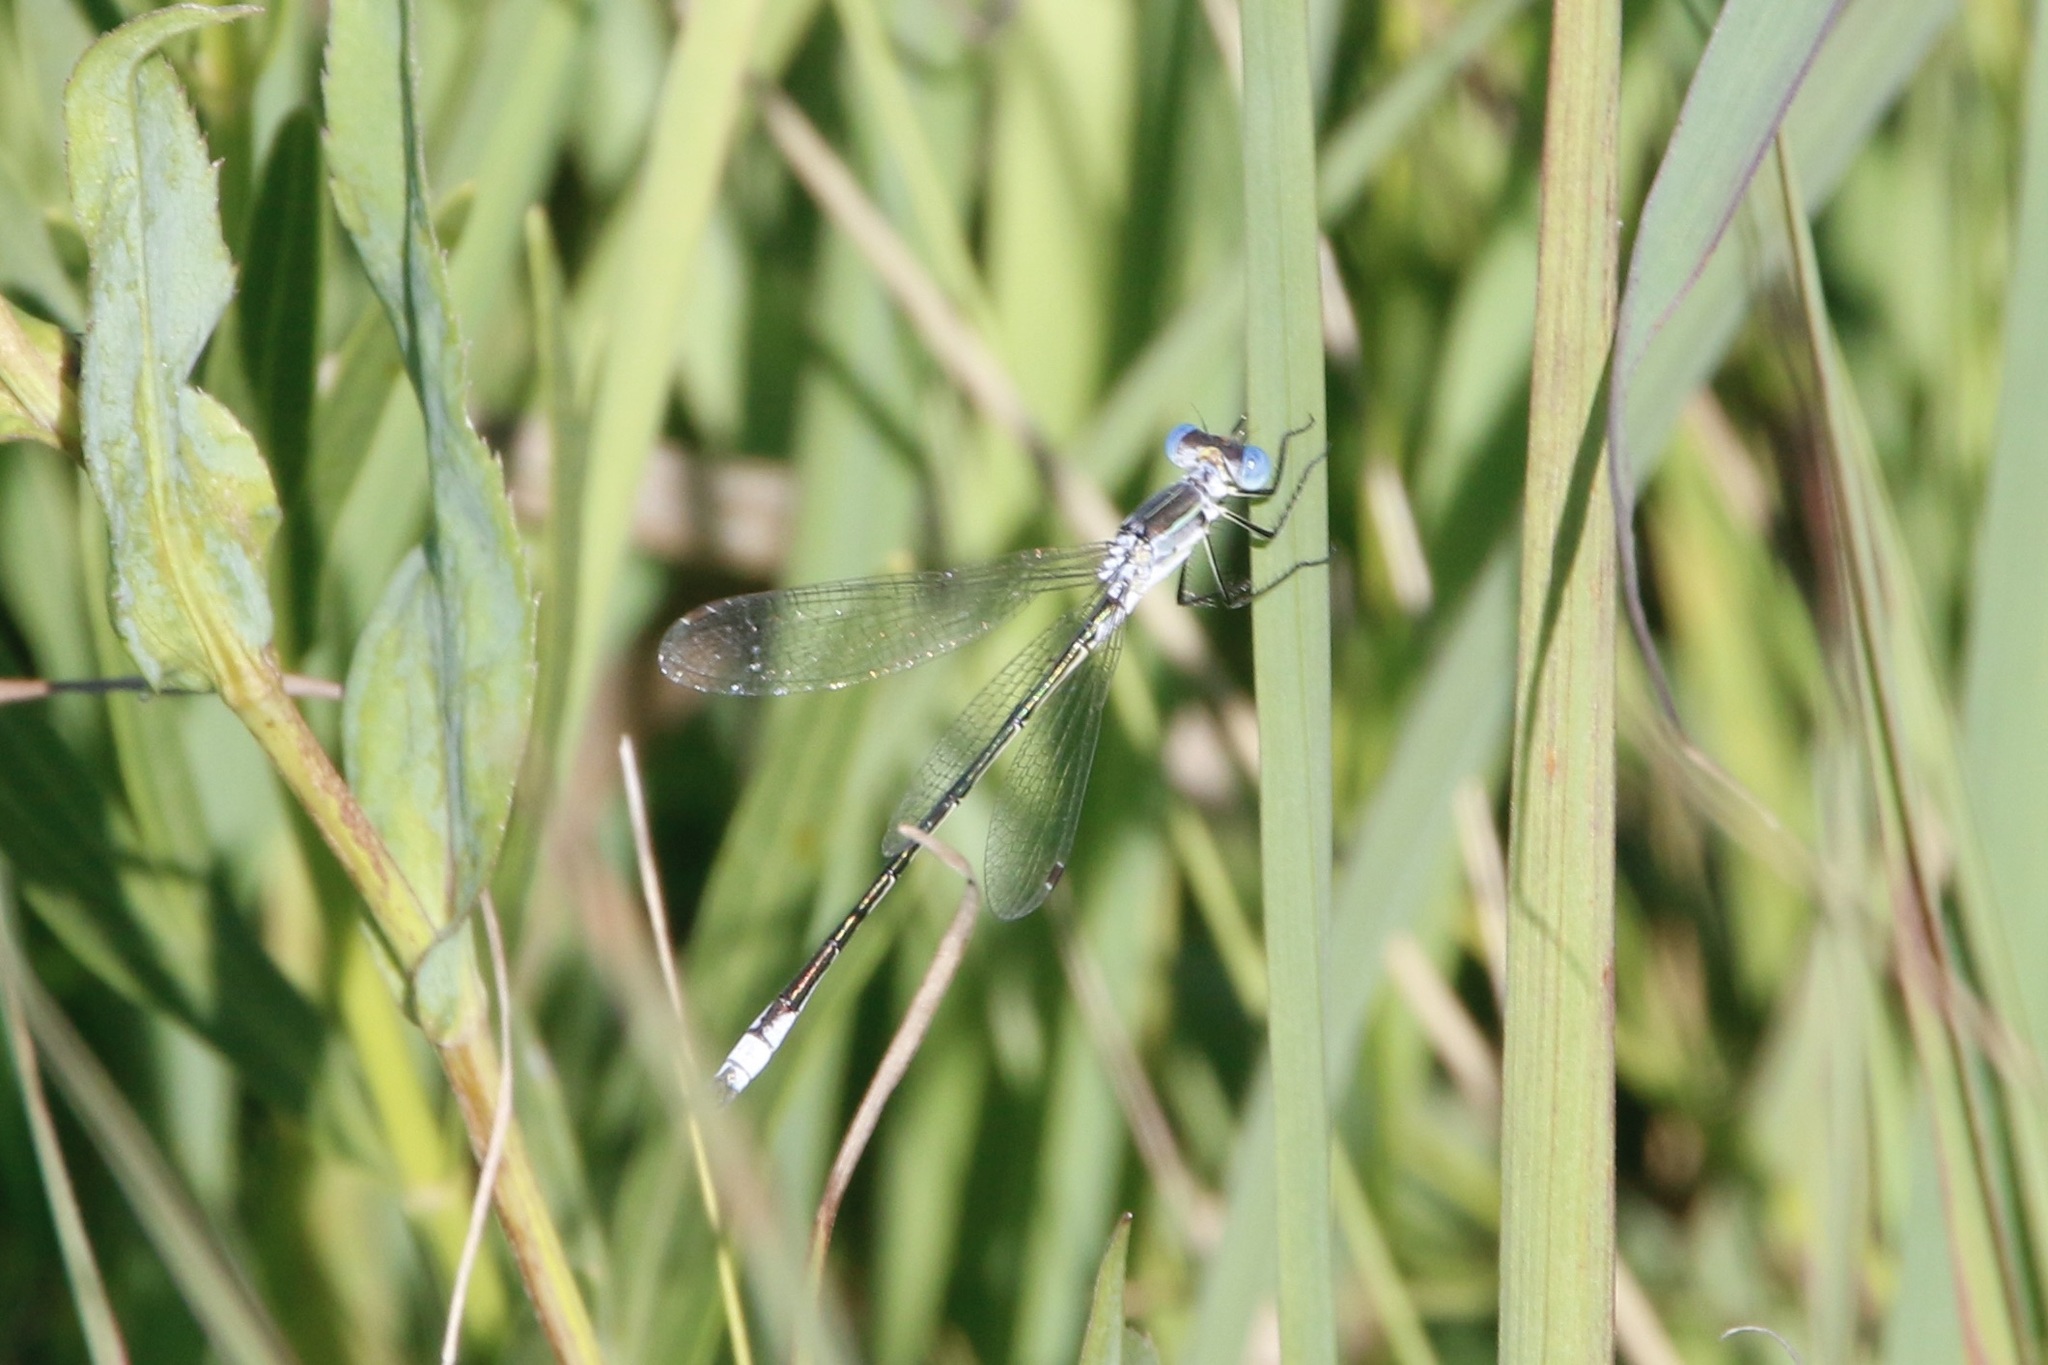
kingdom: Animalia
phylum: Arthropoda
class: Insecta
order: Odonata
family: Lestidae
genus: Lestes
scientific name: Lestes unguiculatus
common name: Lyre-tipped spreadwing
